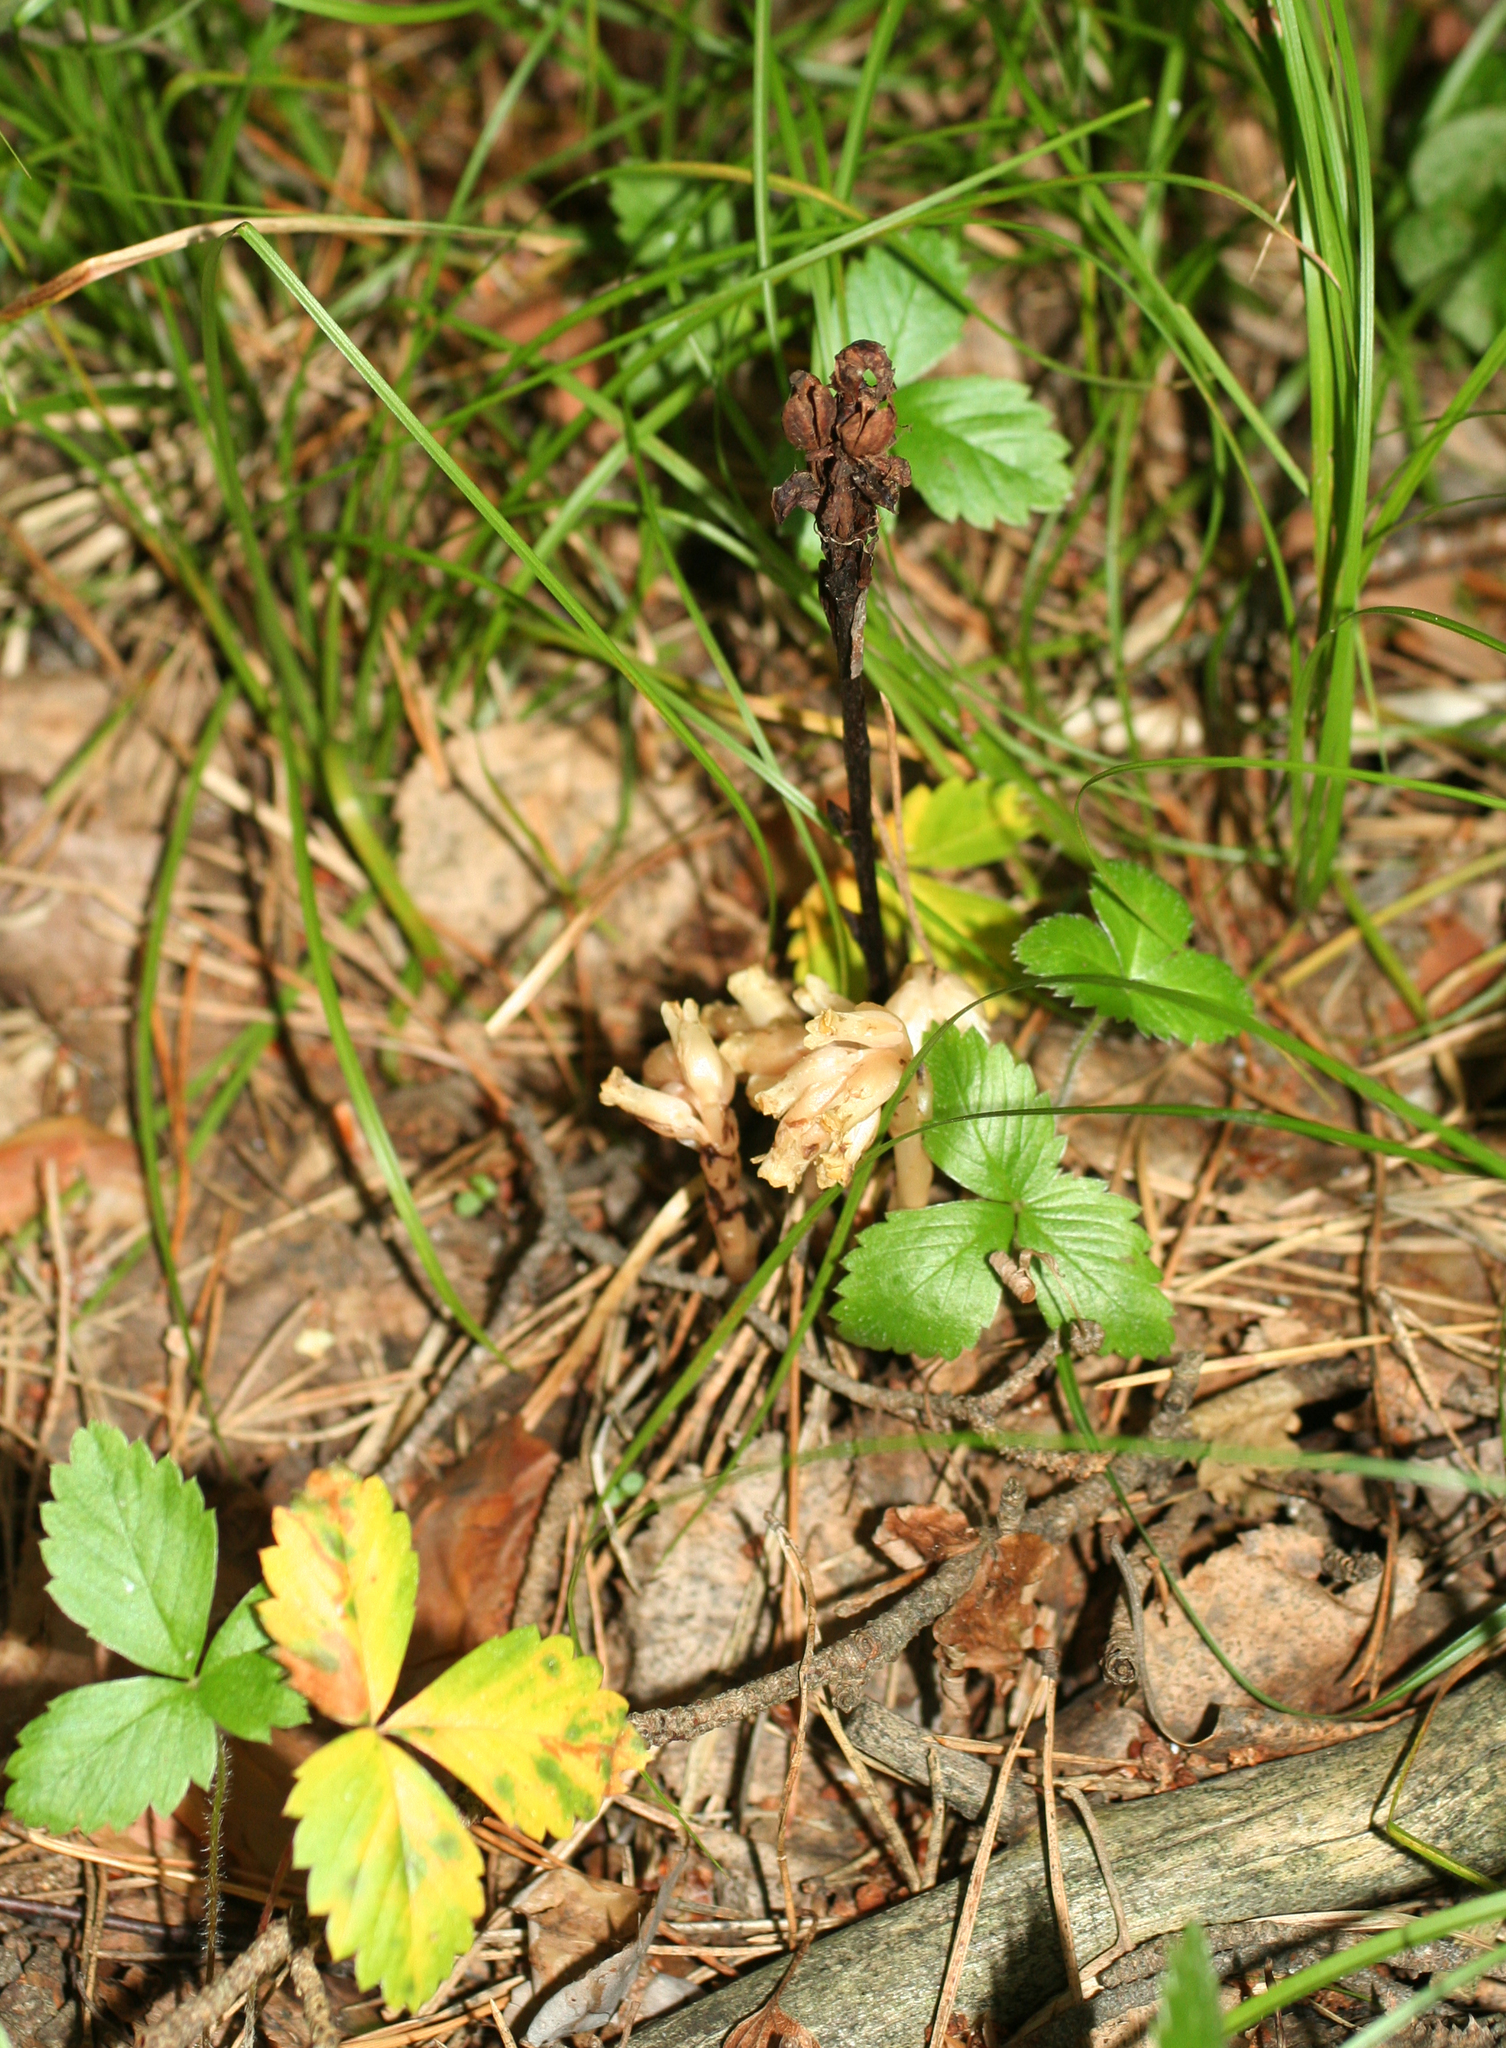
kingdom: Plantae
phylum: Tracheophyta
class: Magnoliopsida
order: Ericales
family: Ericaceae
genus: Hypopitys
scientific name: Hypopitys monotropa
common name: Yellow bird's-nest
